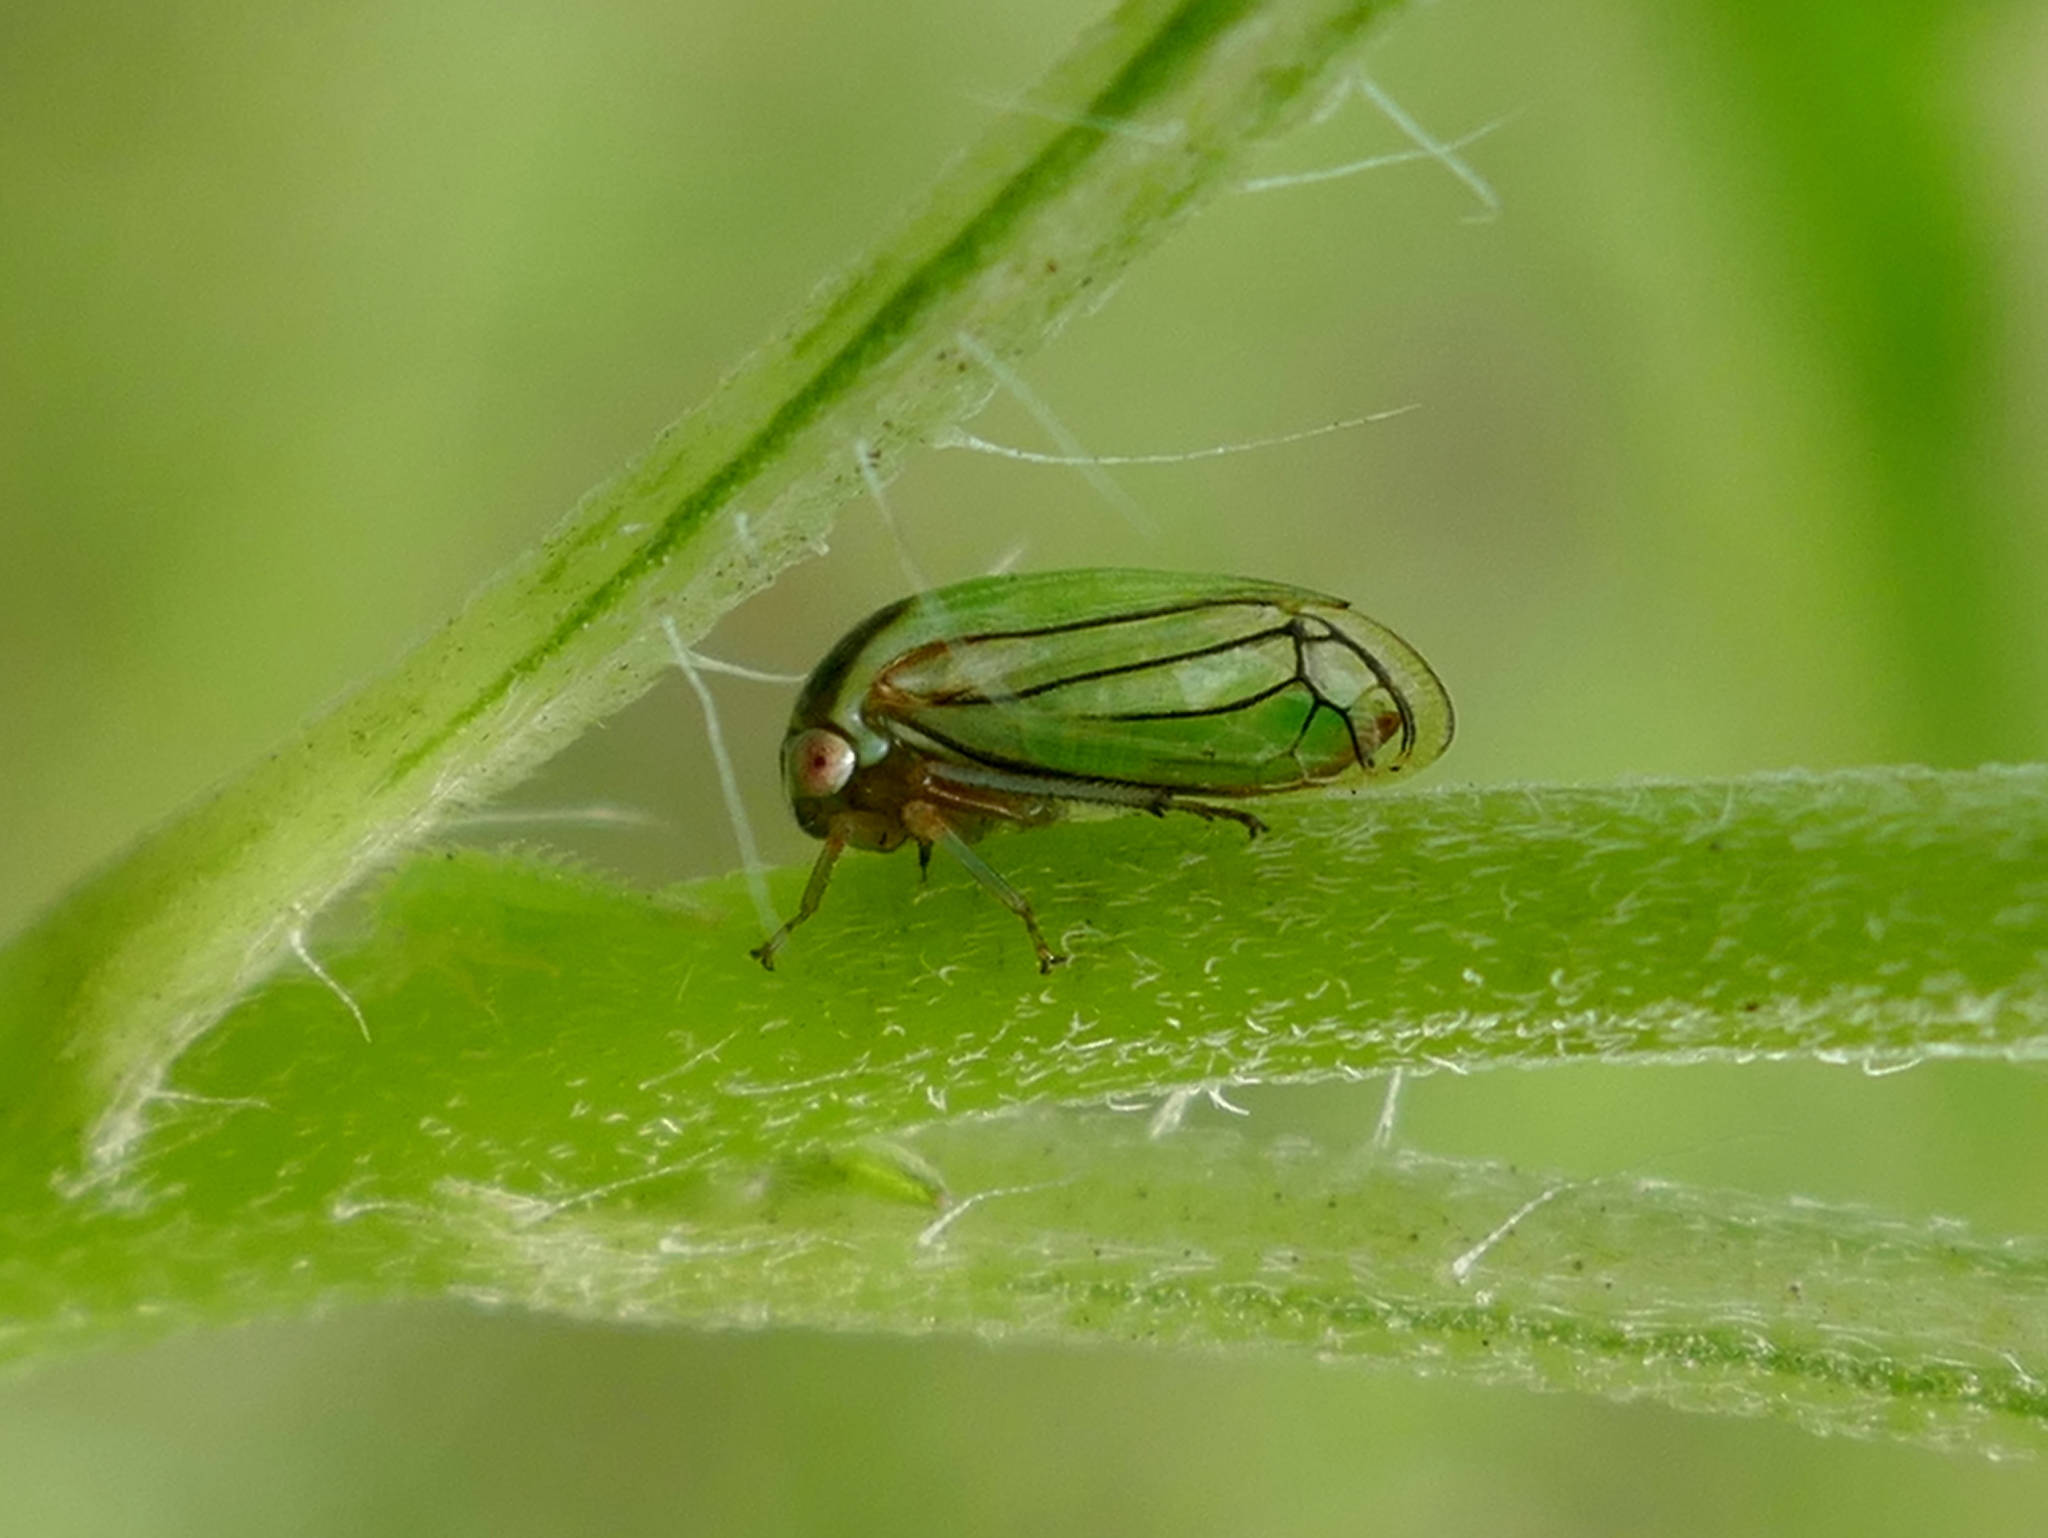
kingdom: Animalia
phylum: Arthropoda
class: Insecta
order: Hemiptera
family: Membracidae
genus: Acutalis
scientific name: Acutalis tartarea
